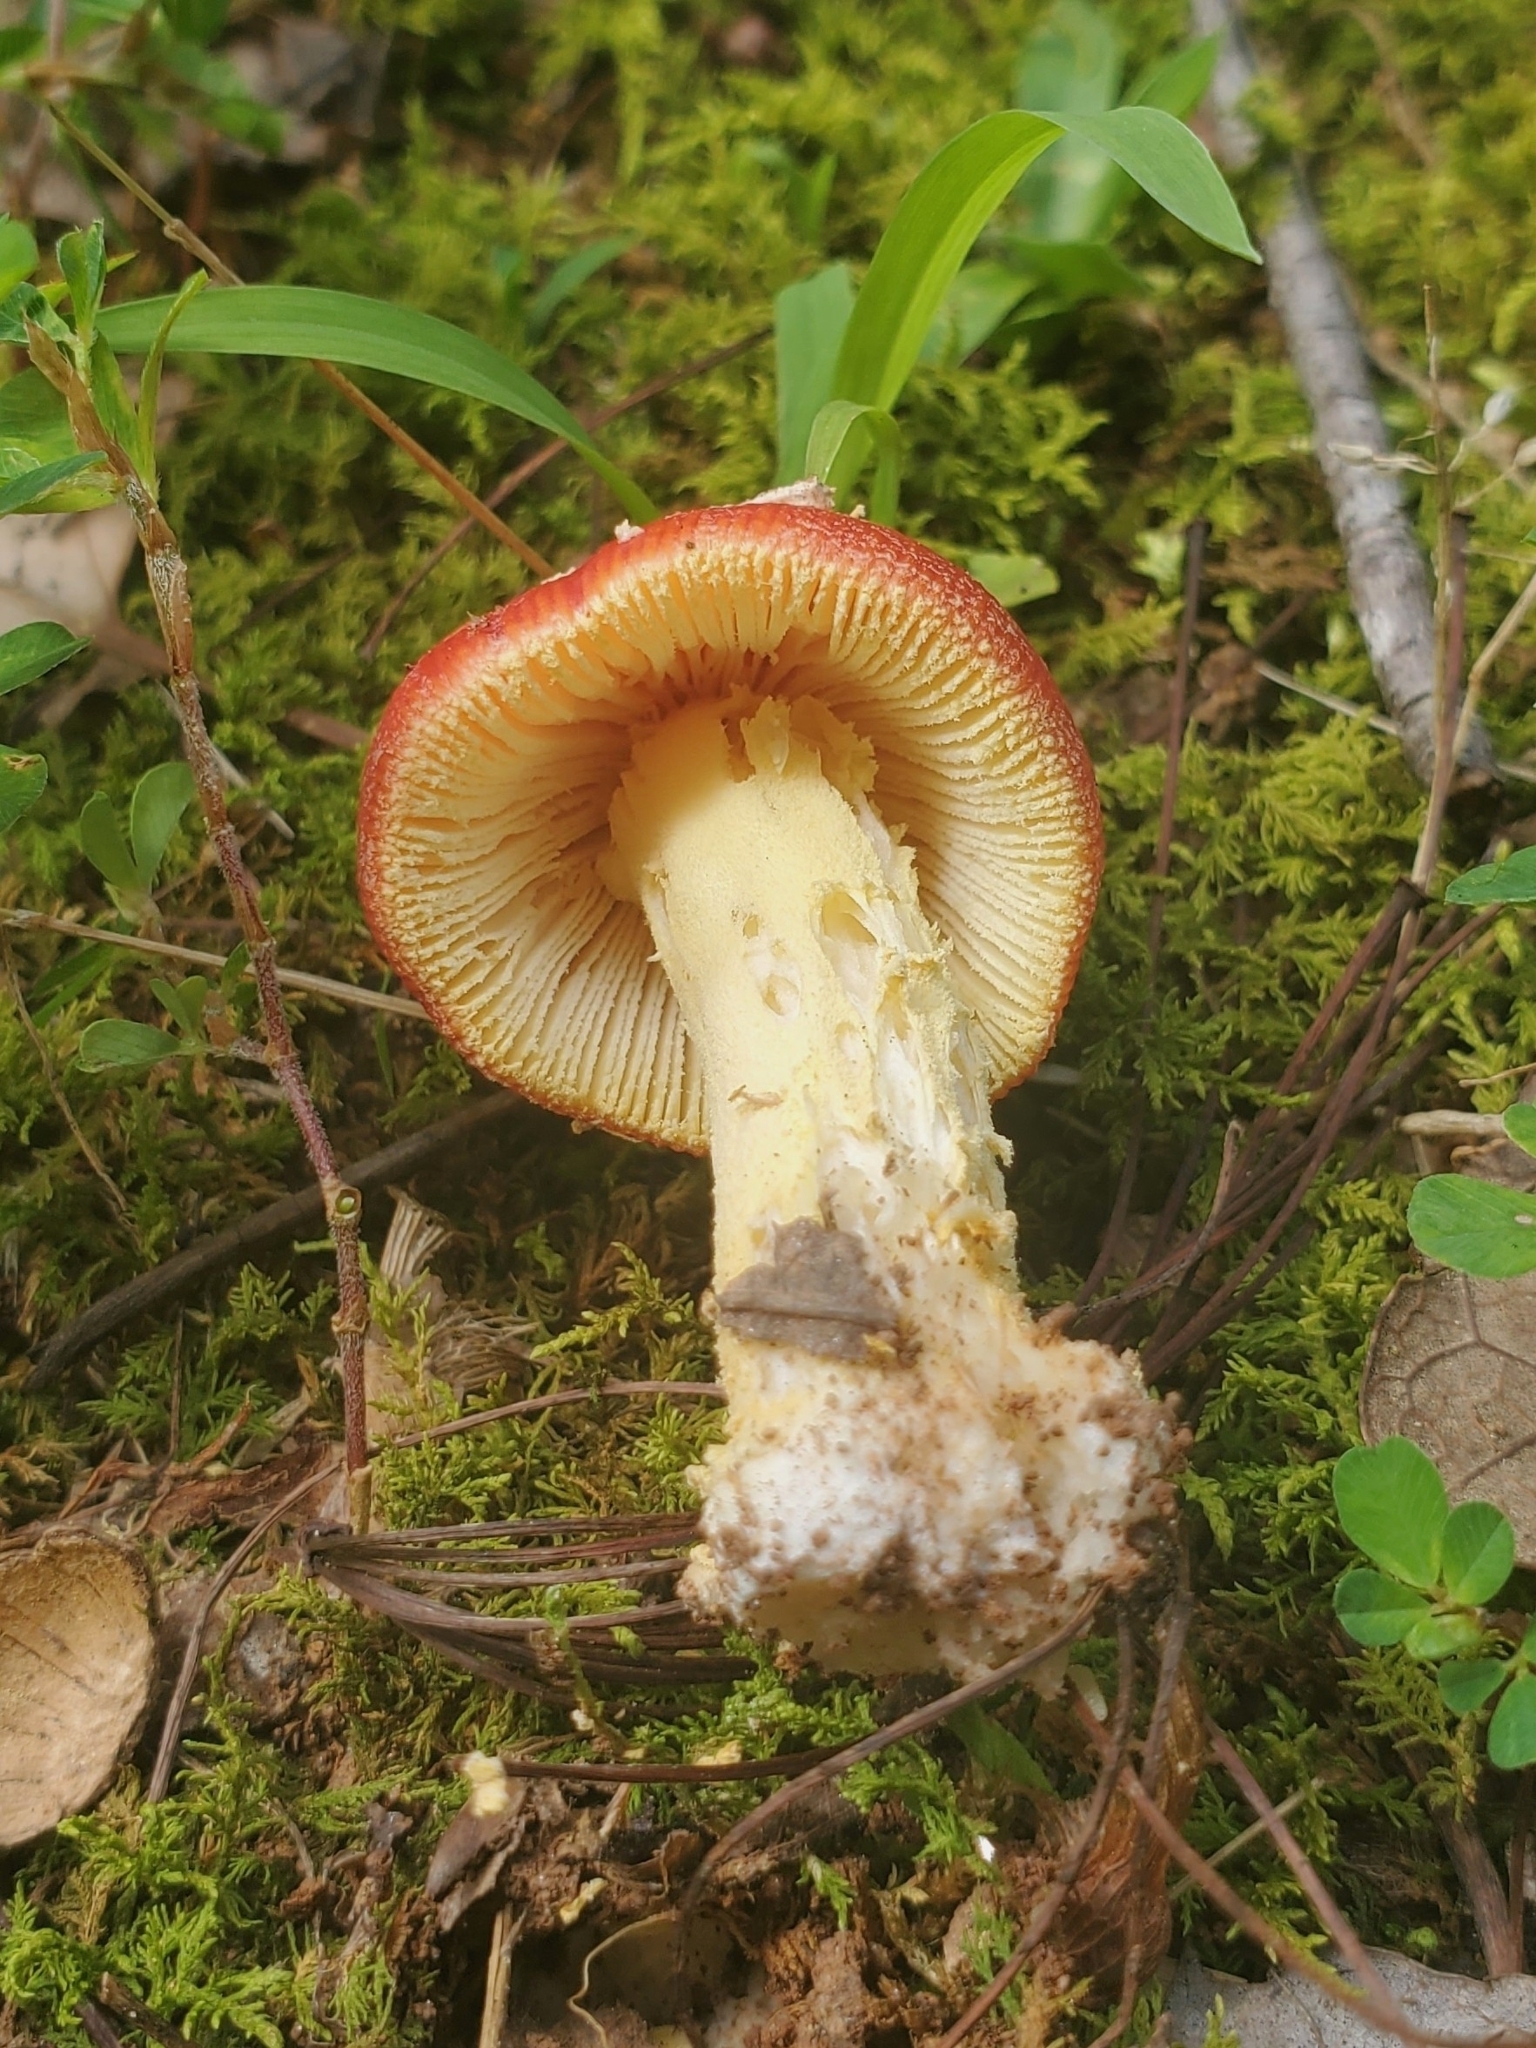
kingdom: Fungi
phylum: Basidiomycota
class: Agaricomycetes
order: Agaricales
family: Amanitaceae
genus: Amanita
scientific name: Amanita parcivolvata
